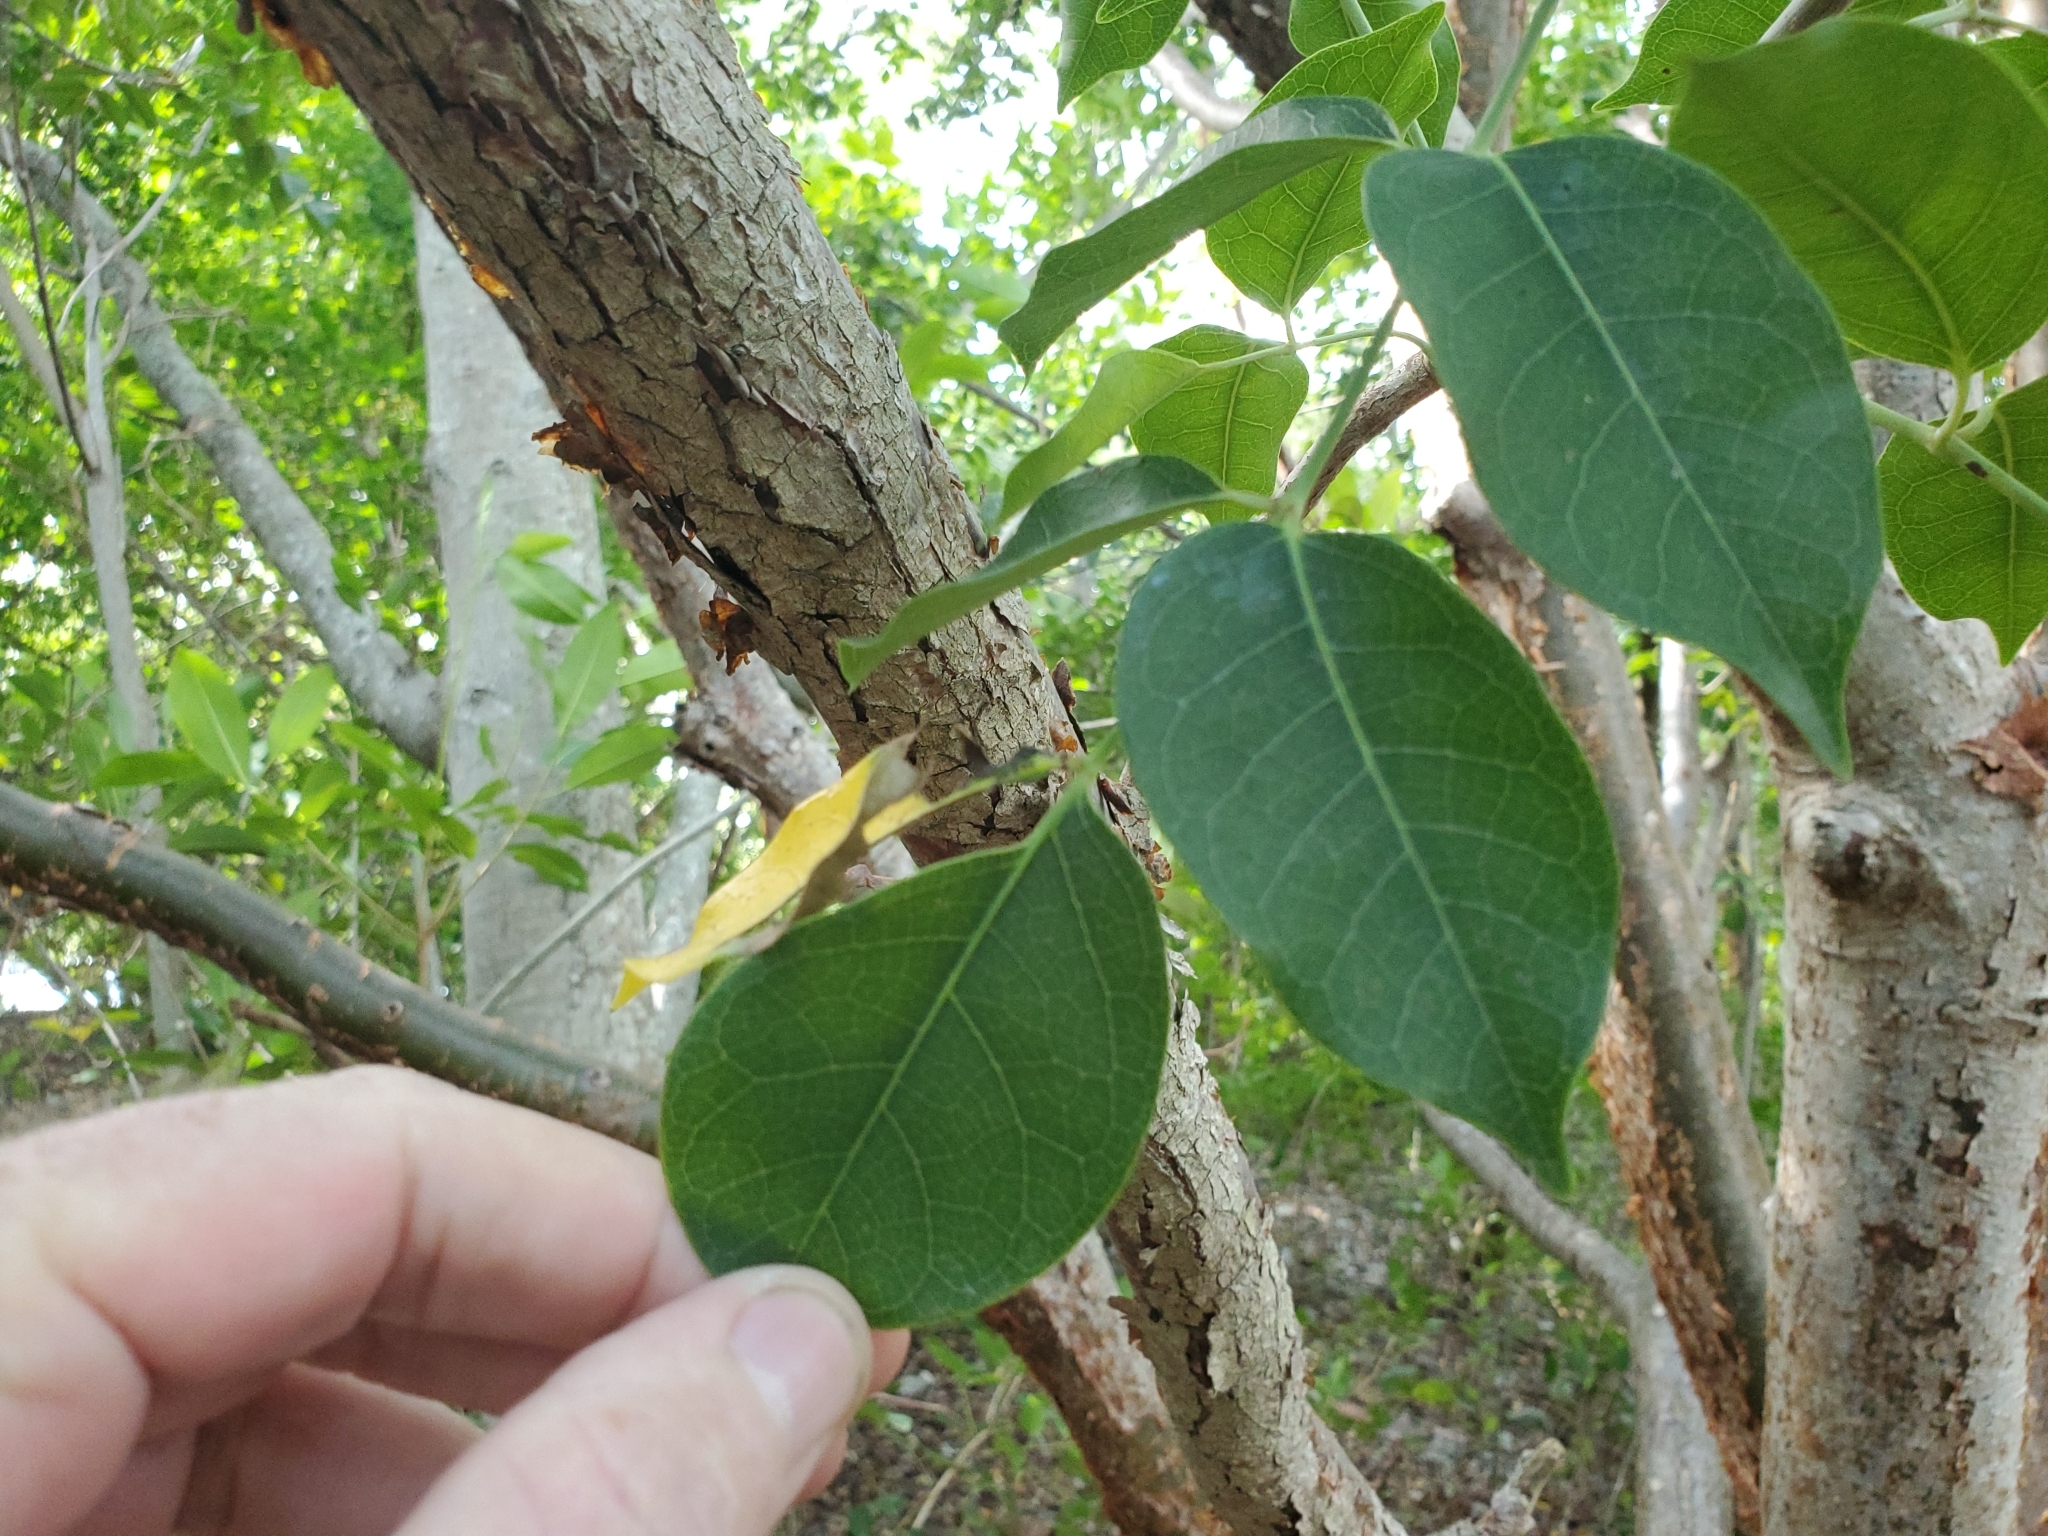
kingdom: Plantae
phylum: Tracheophyta
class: Magnoliopsida
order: Sapindales
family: Burseraceae
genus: Bursera
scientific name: Bursera simaruba
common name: Turpentine tree
